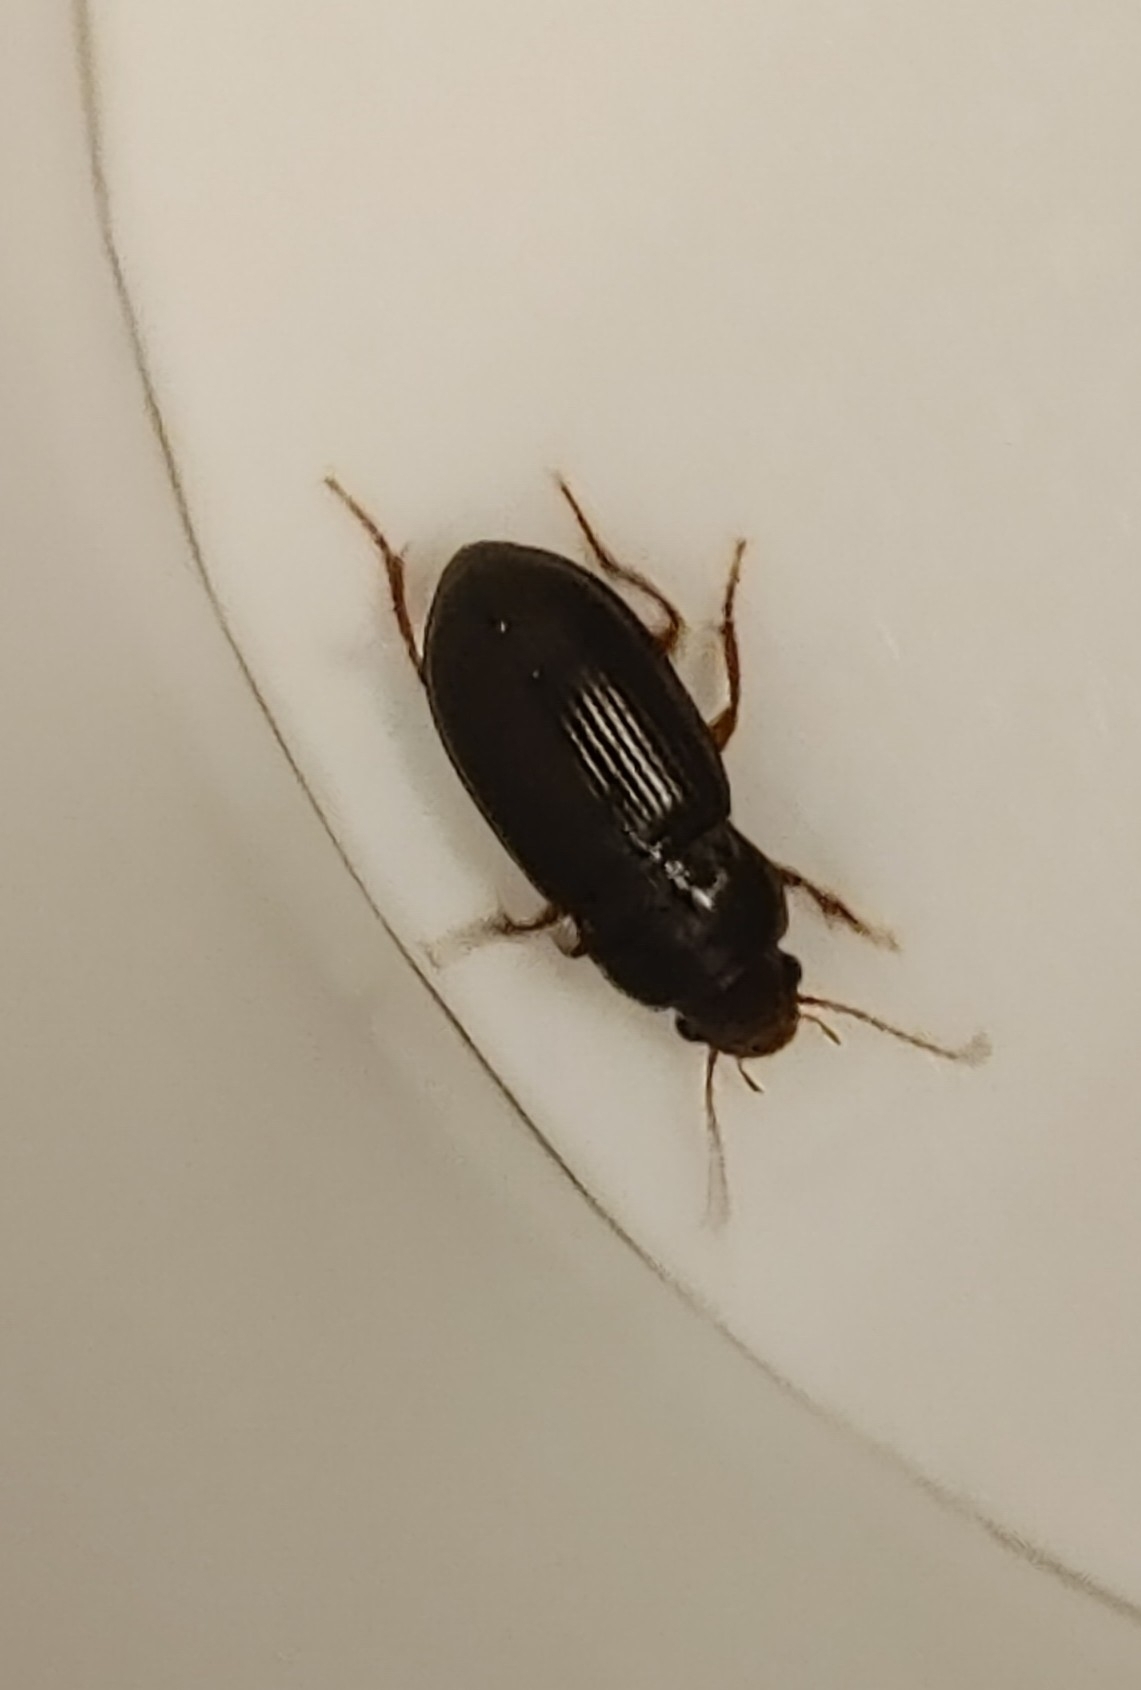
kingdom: Animalia
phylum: Arthropoda
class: Insecta
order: Coleoptera
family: Carabidae
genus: Amara
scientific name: Amara apricaria
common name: Exposed sun beetle
